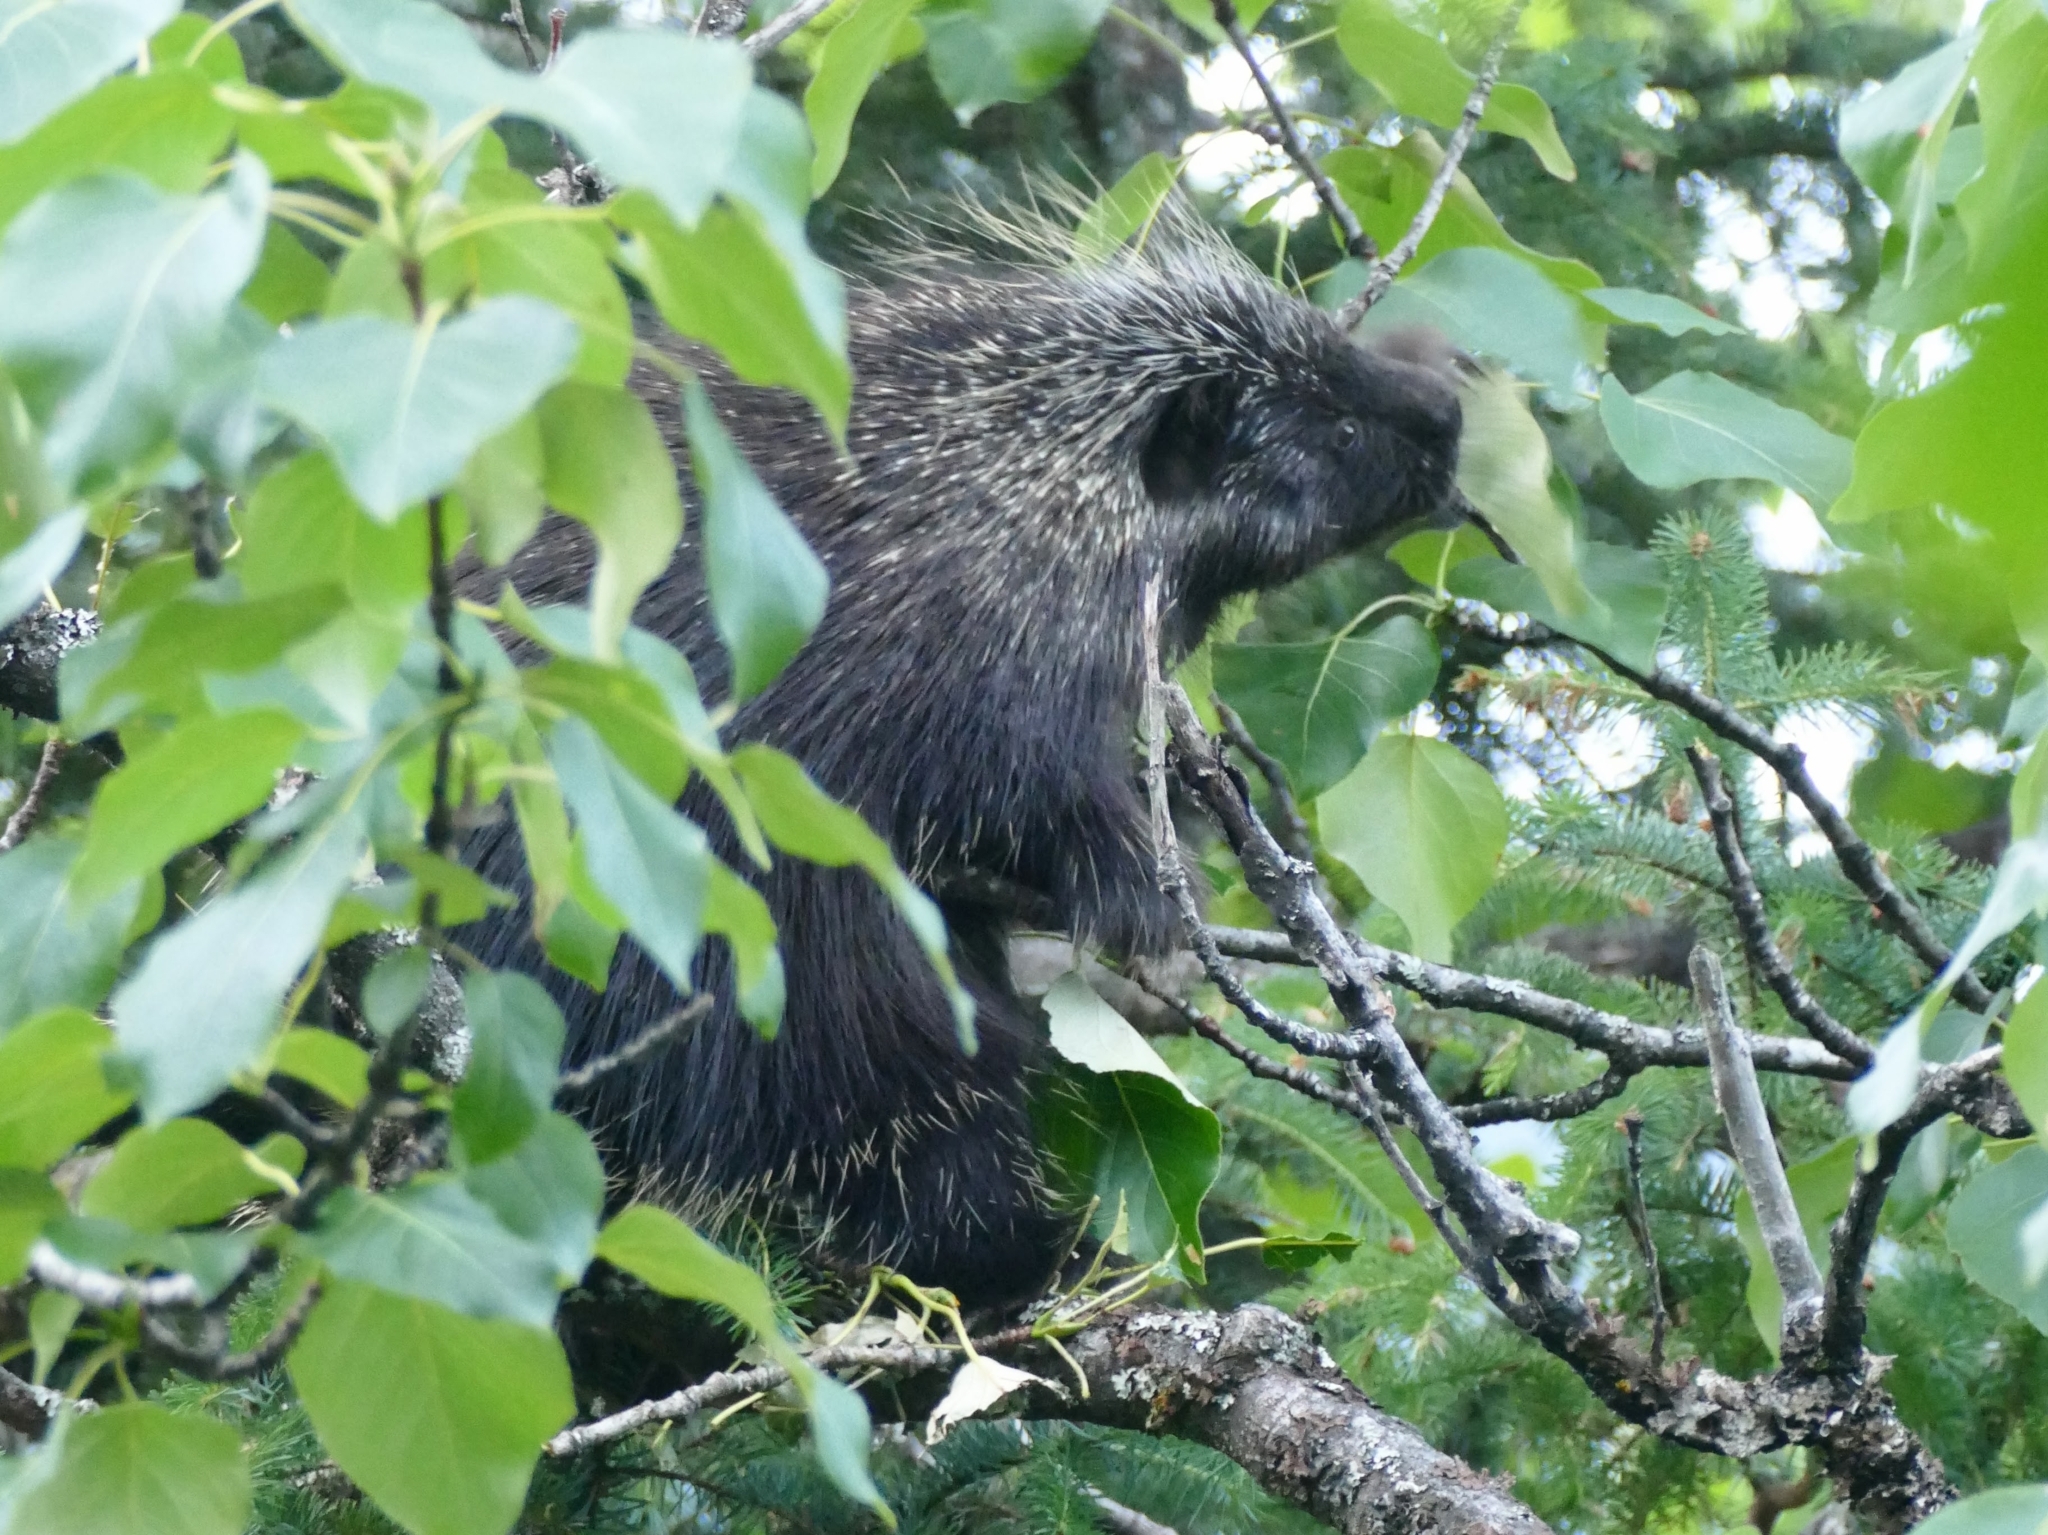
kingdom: Animalia
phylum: Chordata
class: Mammalia
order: Rodentia
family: Erethizontidae
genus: Erethizon
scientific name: Erethizon dorsatus
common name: North american porcupine
